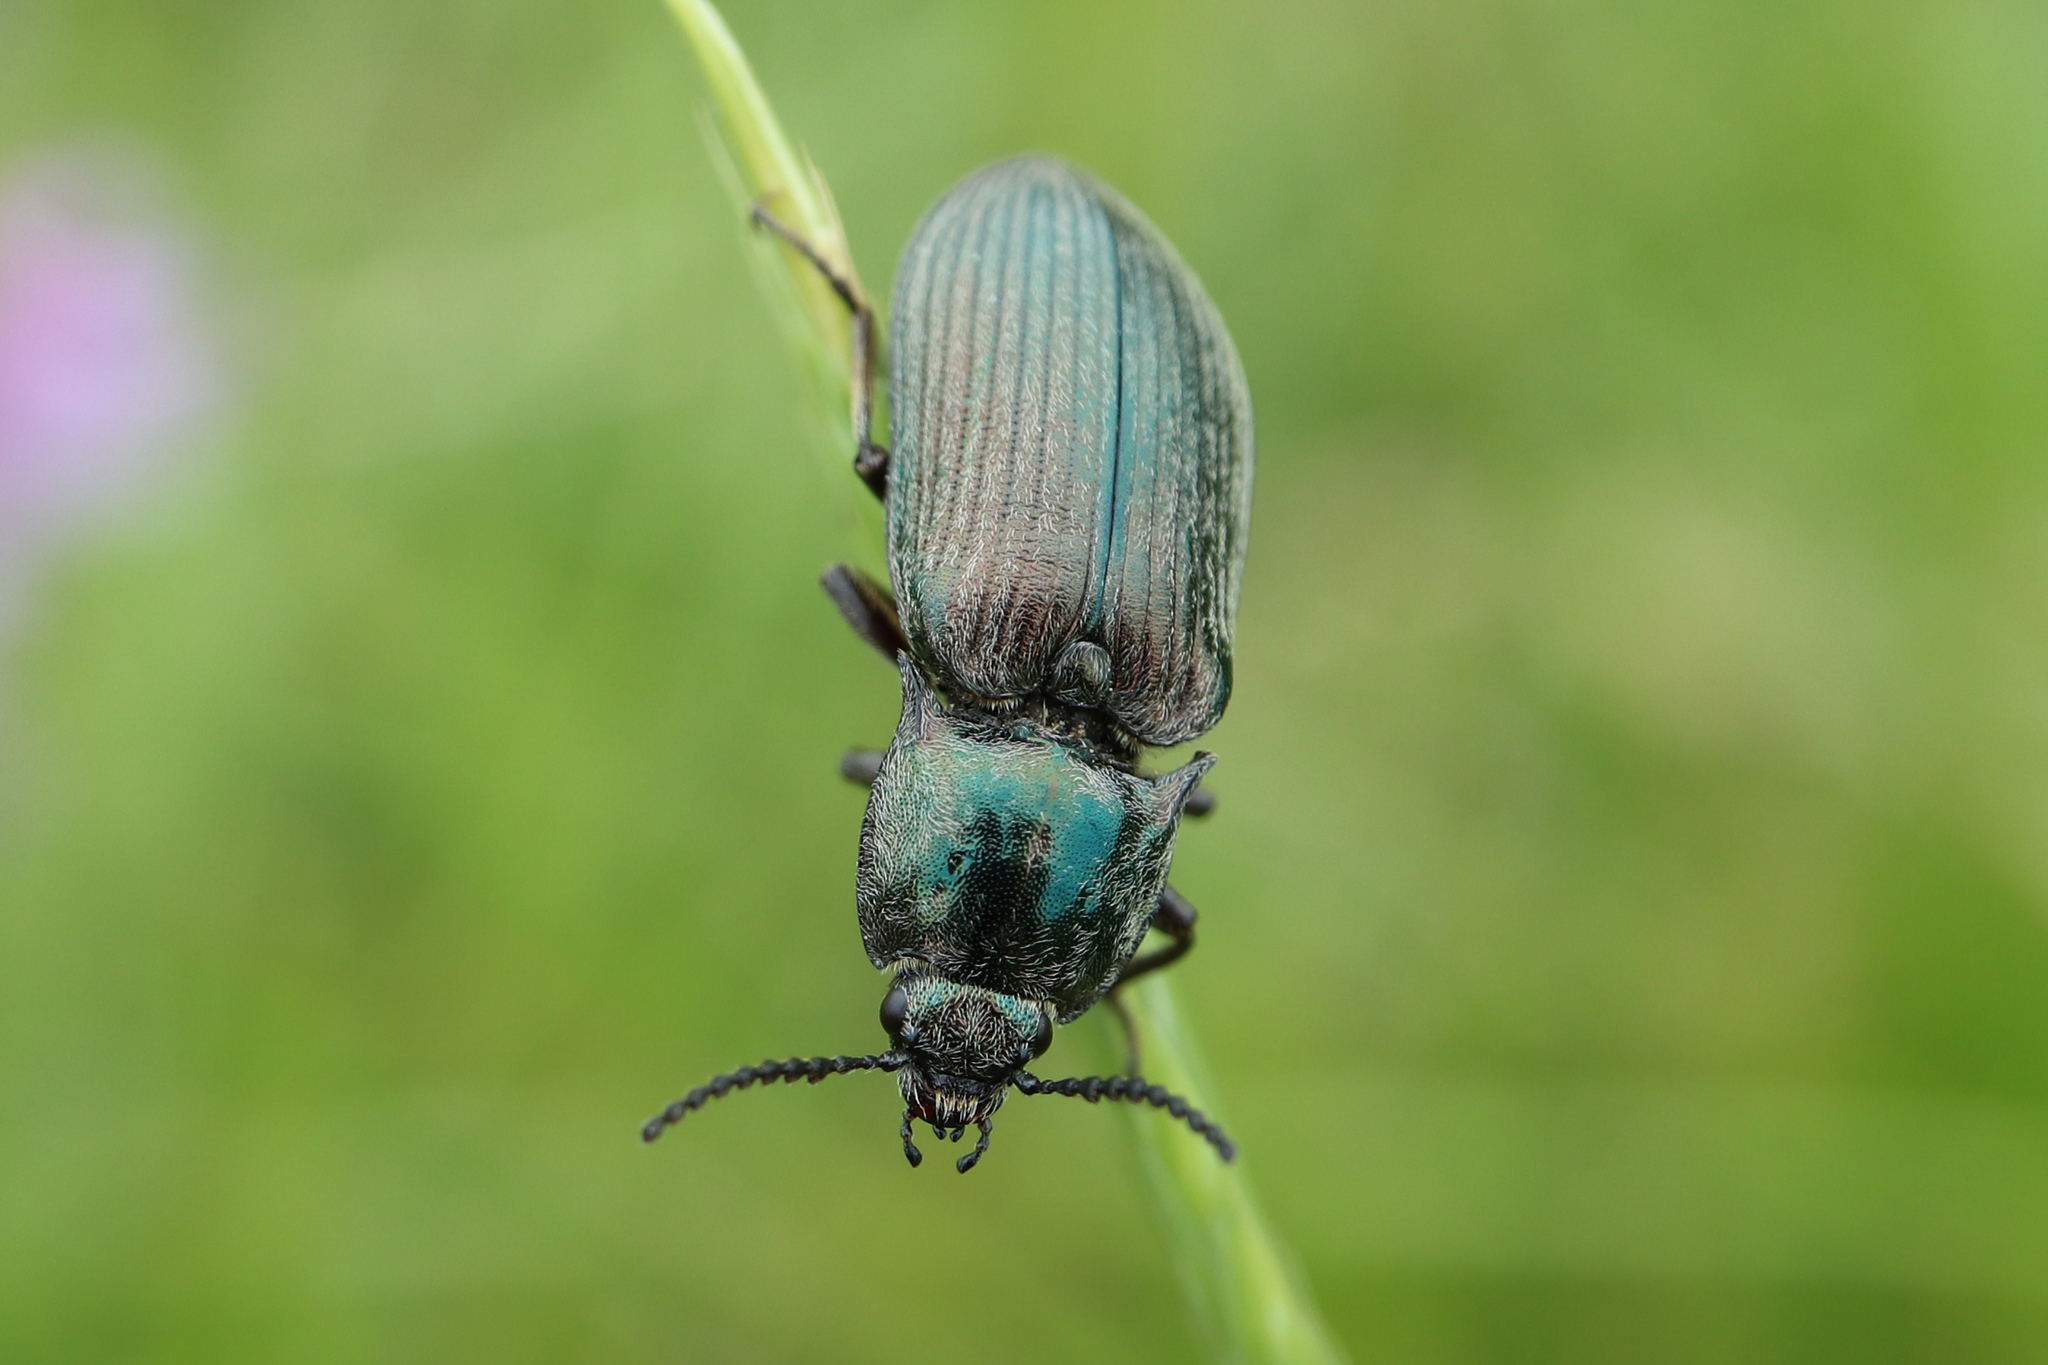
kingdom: Animalia
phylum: Arthropoda
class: Insecta
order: Coleoptera
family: Elateridae
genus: Selatosomus
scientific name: Selatosomus latus
